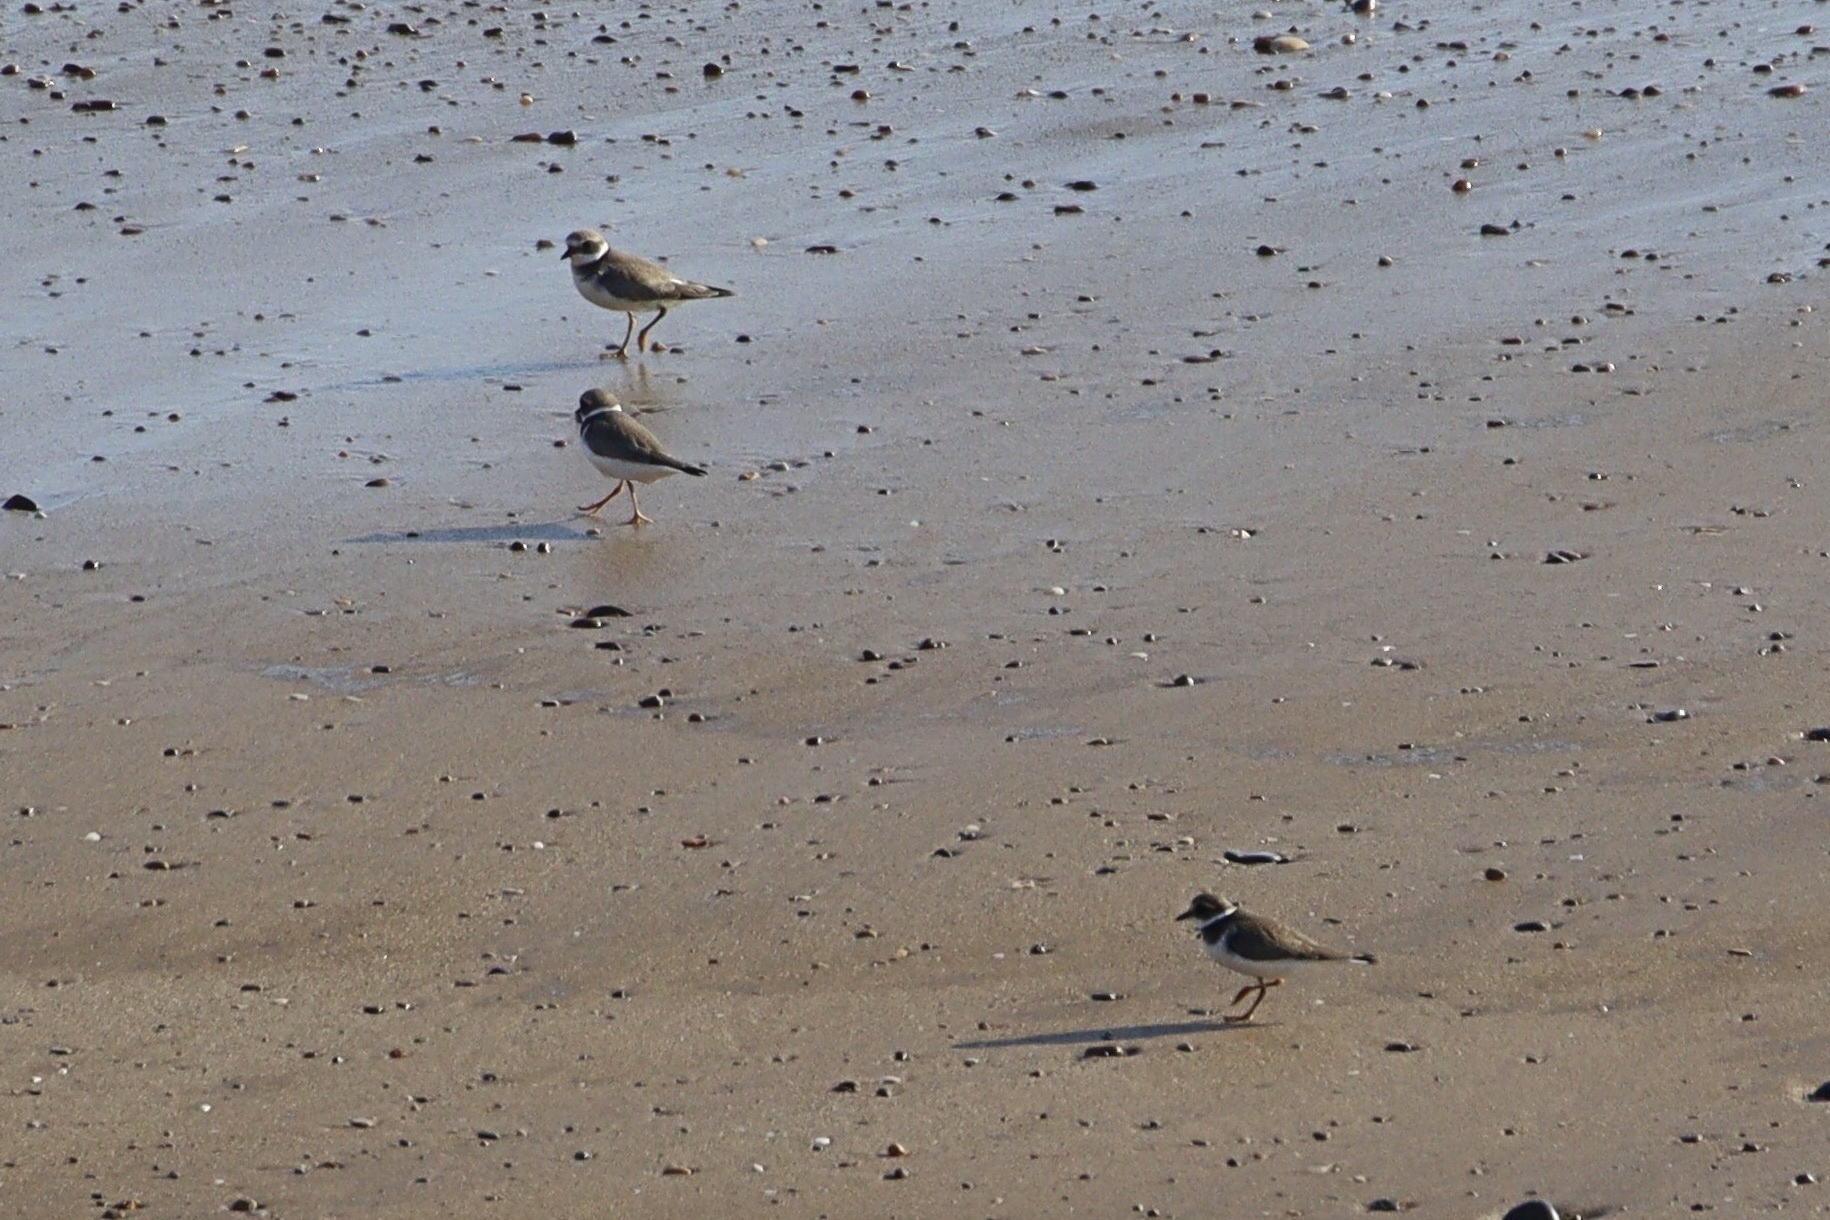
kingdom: Animalia
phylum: Chordata
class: Aves
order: Charadriiformes
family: Charadriidae
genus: Charadrius
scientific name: Charadrius hiaticula
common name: Common ringed plover
